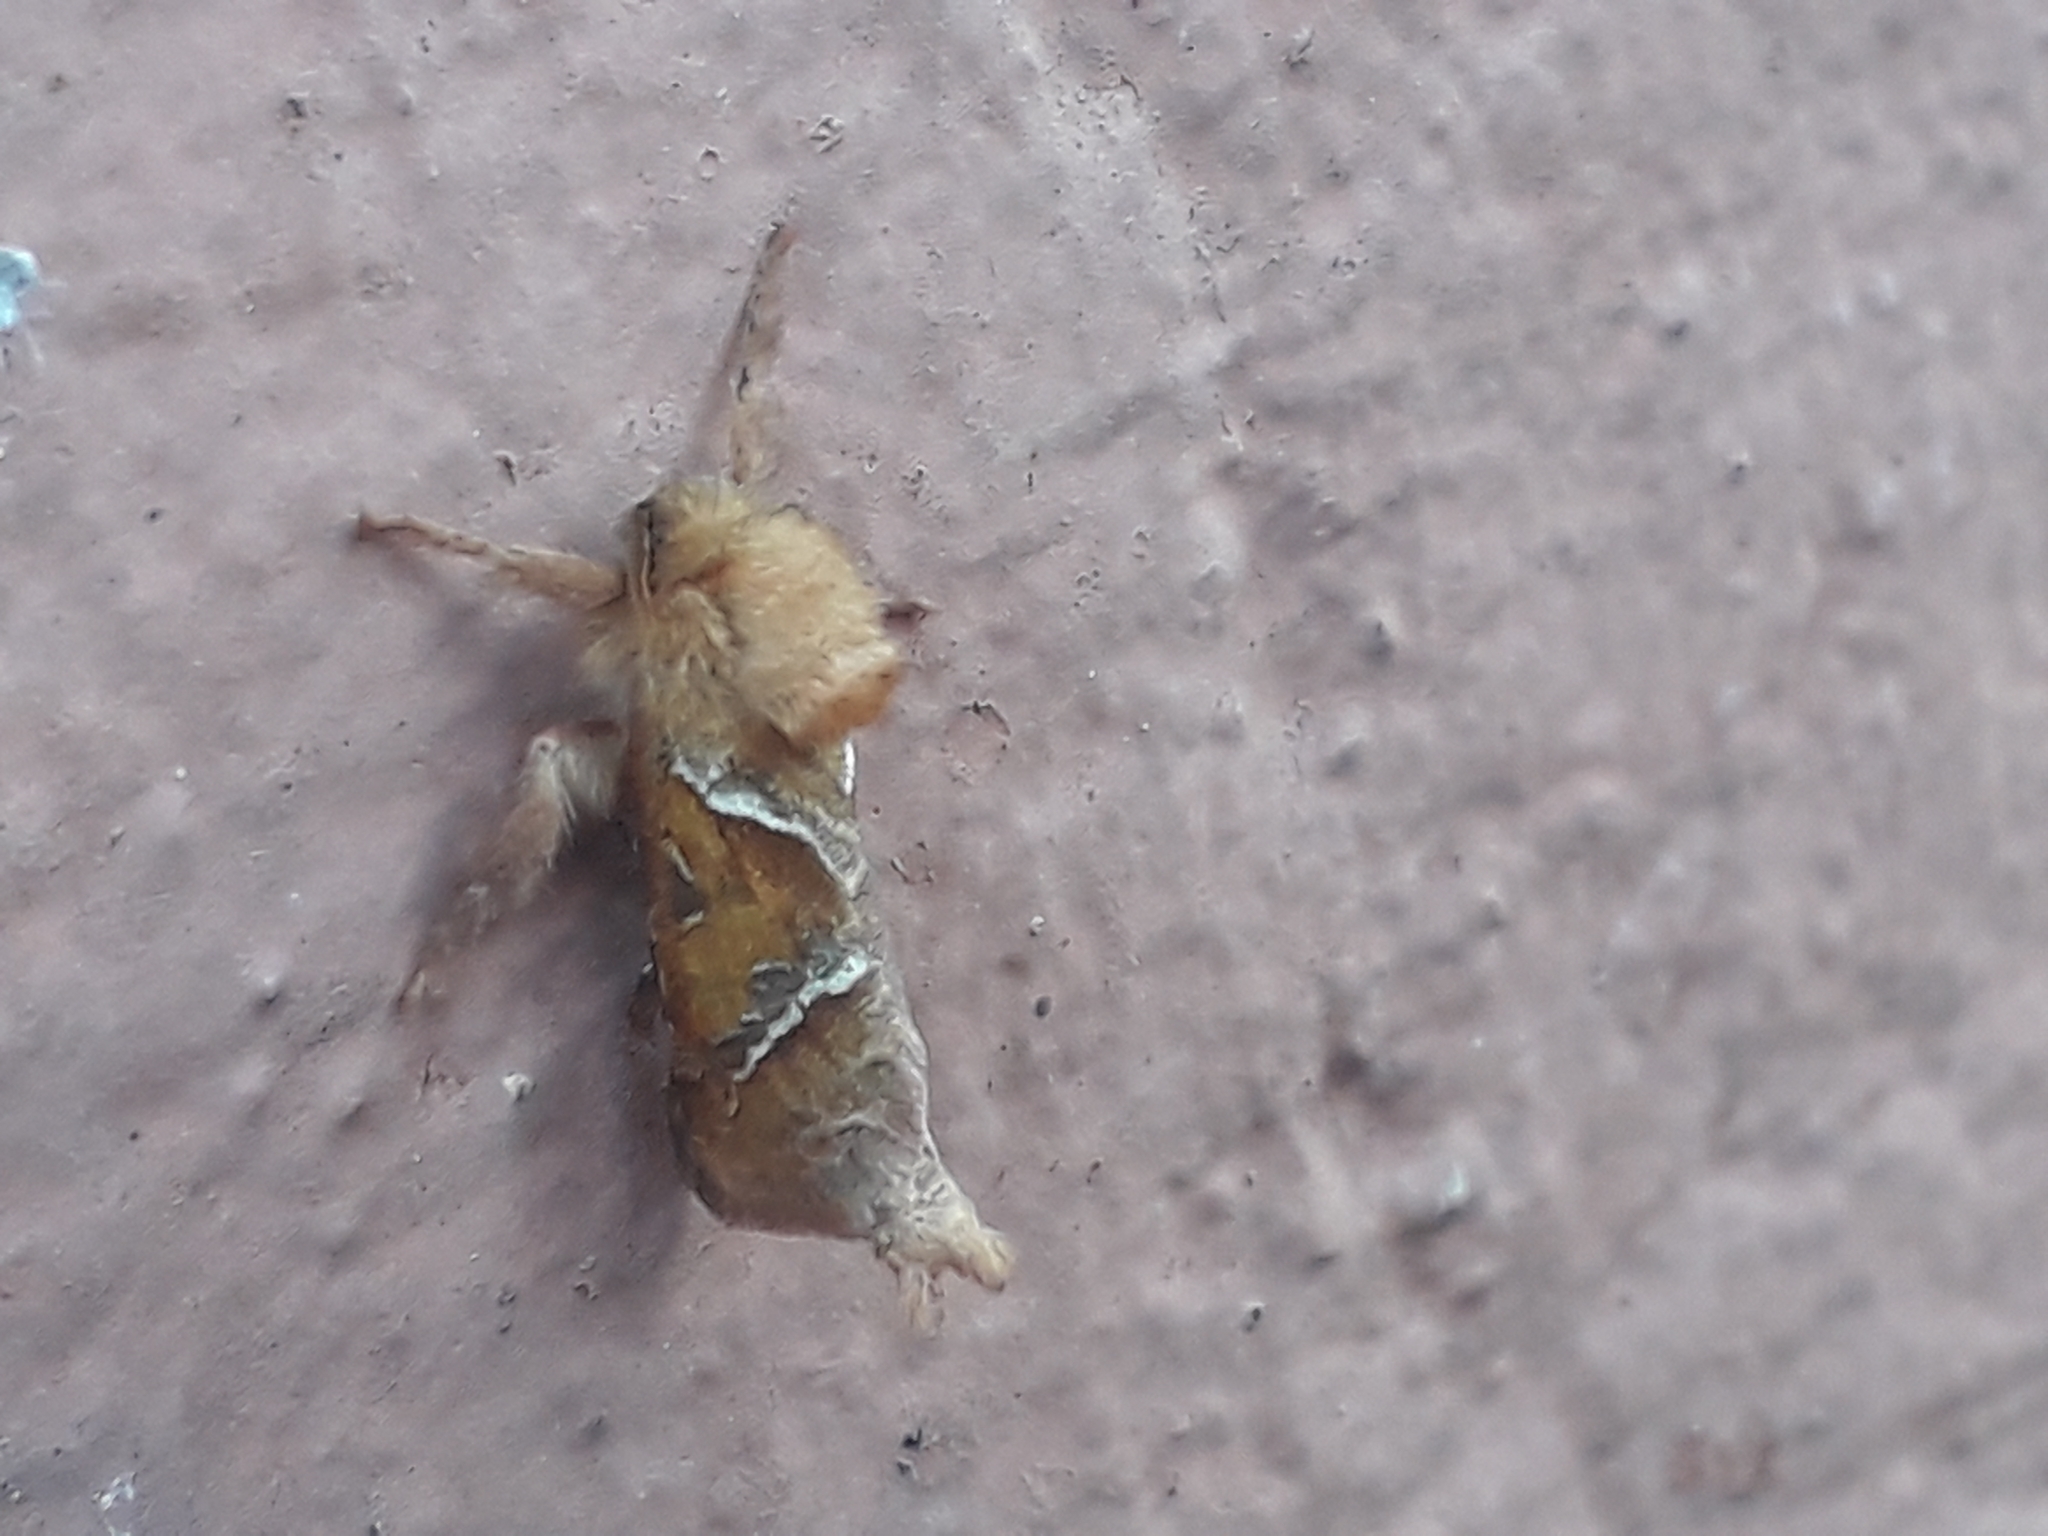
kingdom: Animalia
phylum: Arthropoda
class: Insecta
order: Lepidoptera
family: Hepialidae
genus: Triodia
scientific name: Triodia sylvina
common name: Orange swift
